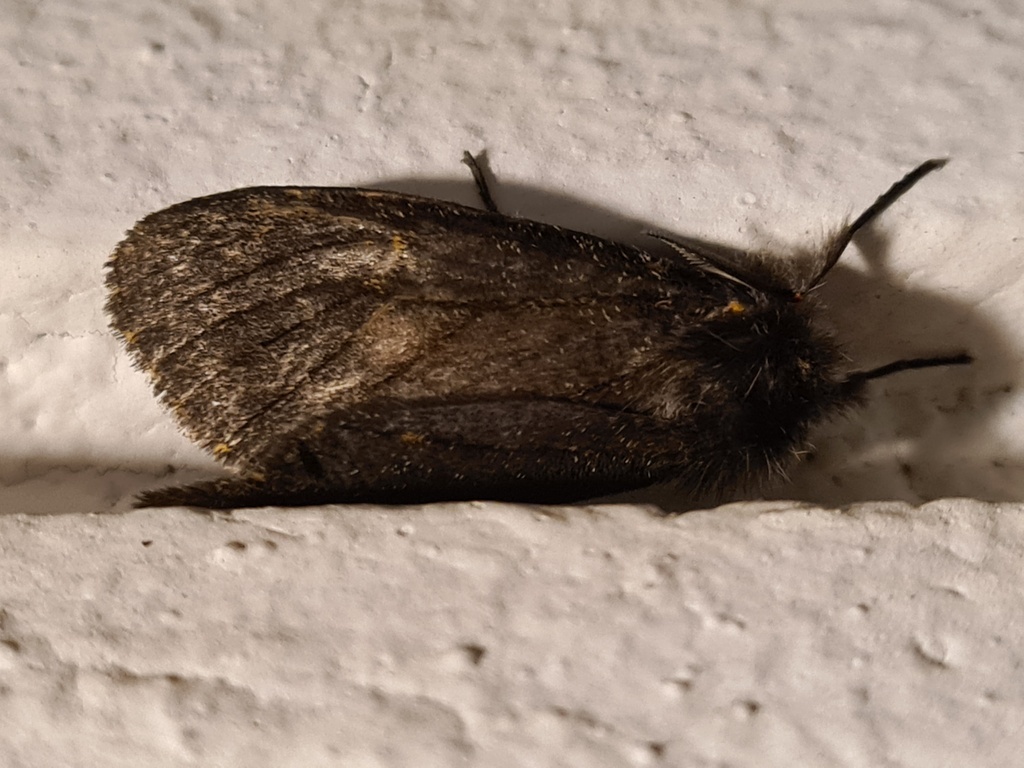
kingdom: Animalia
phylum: Arthropoda
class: Insecta
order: Lepidoptera
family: Erebidae
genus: Polymona
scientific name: Polymona rufifemur
